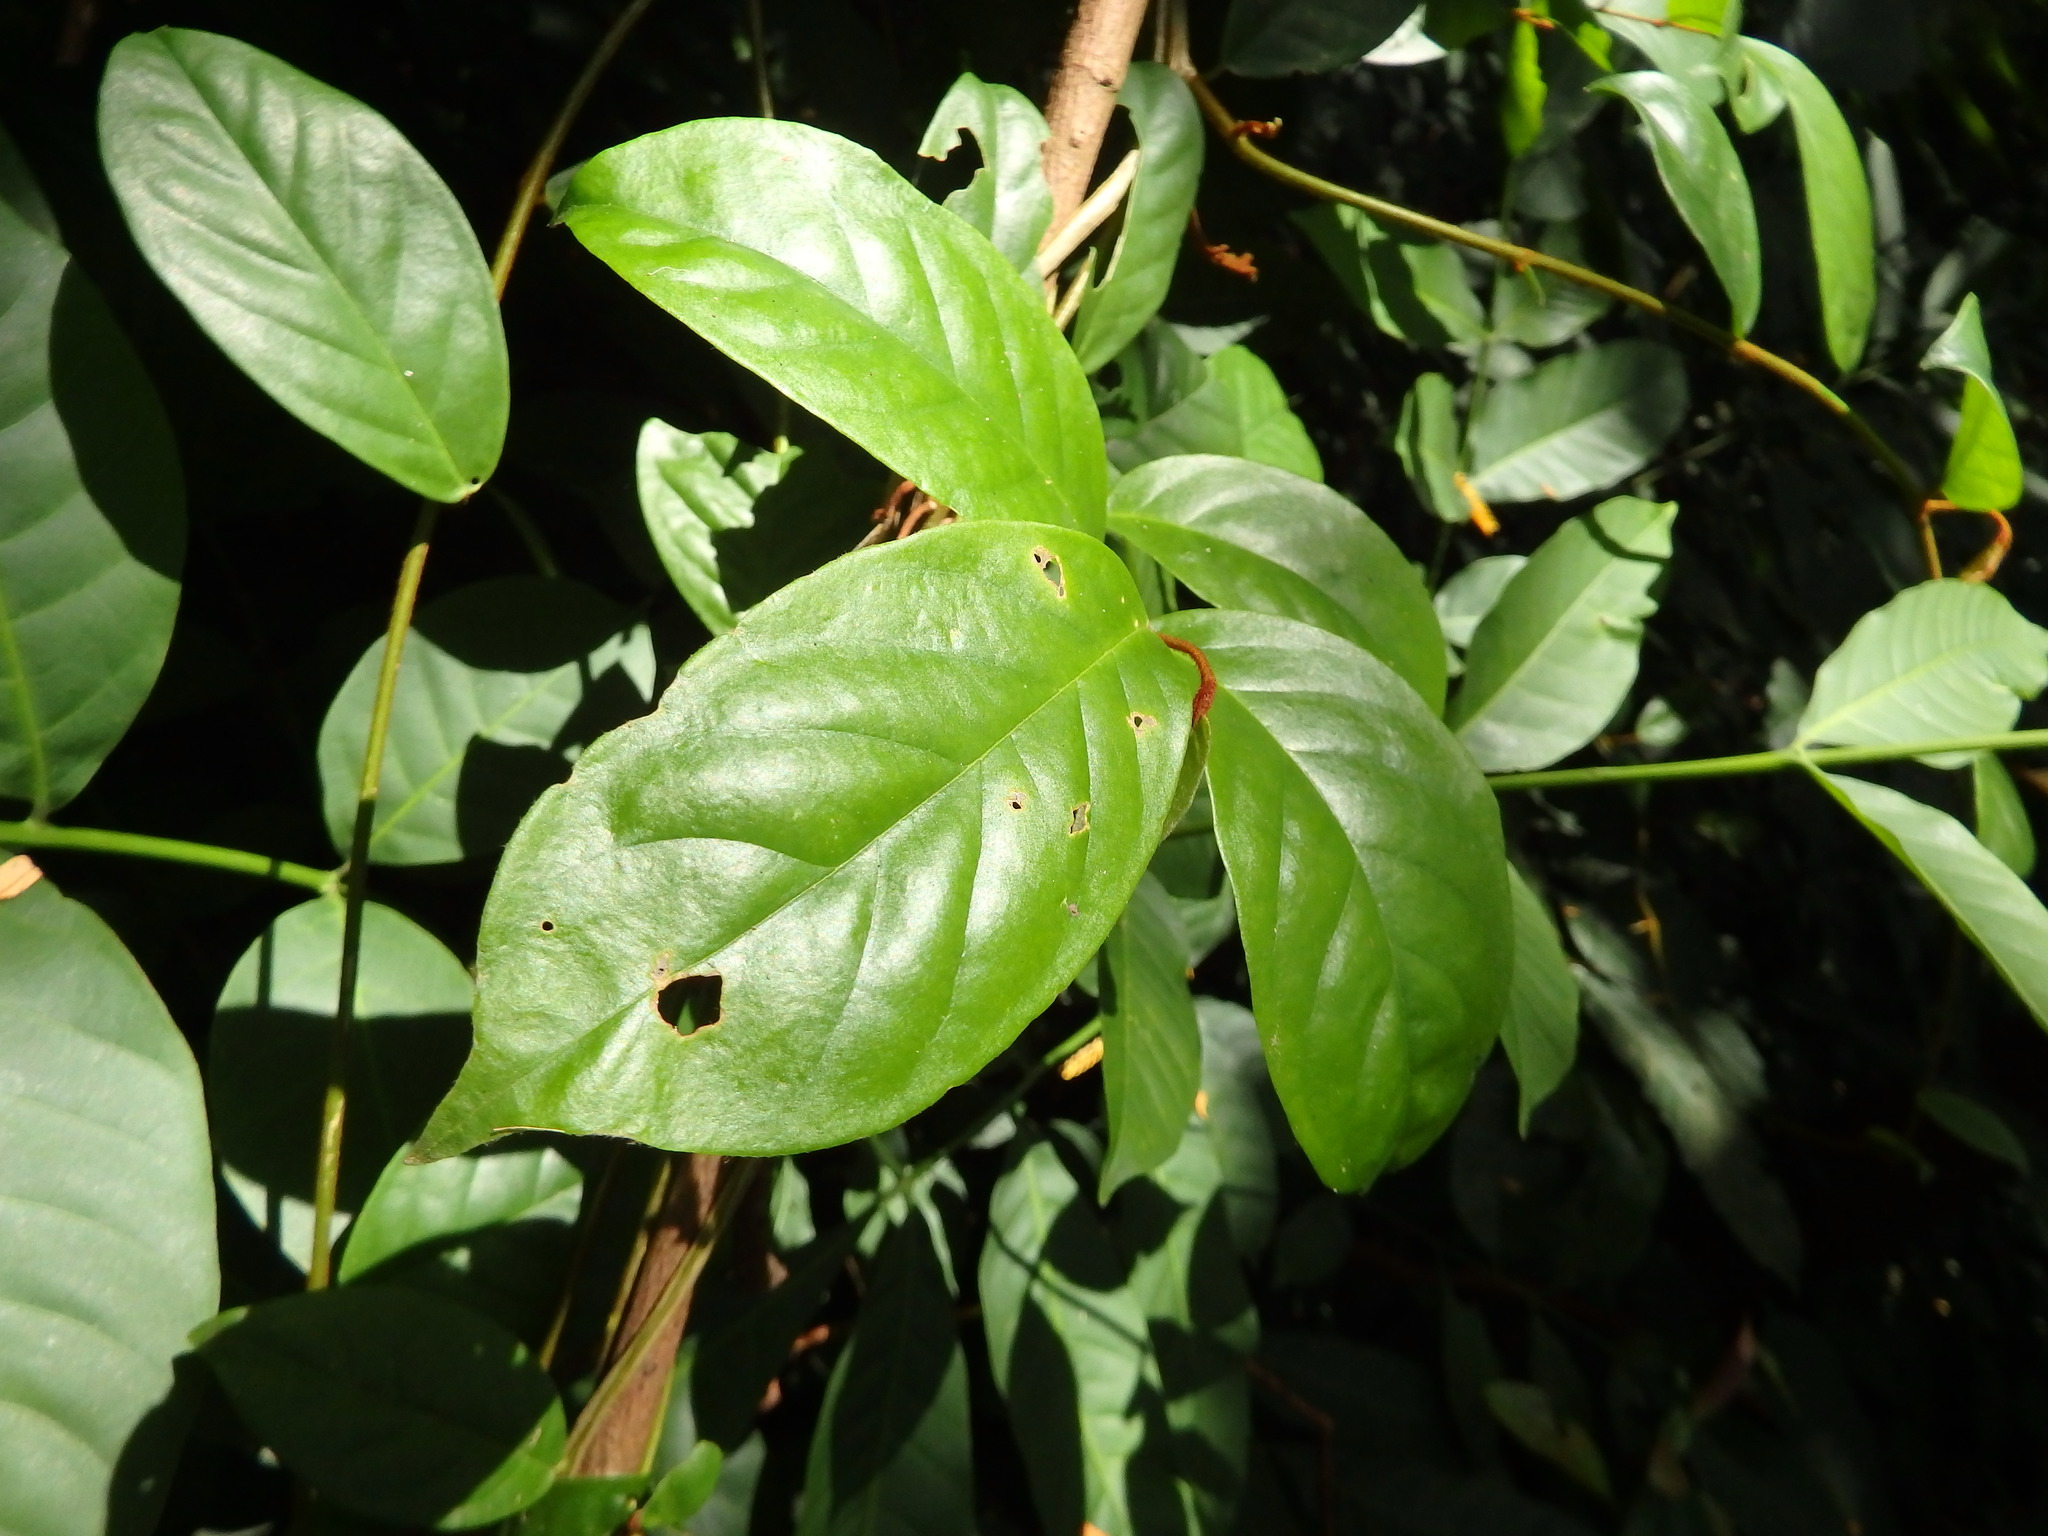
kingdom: Plantae
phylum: Tracheophyta
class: Magnoliopsida
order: Solanales
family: Convolvulaceae
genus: Erycibe
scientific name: Erycibe tomentosa
